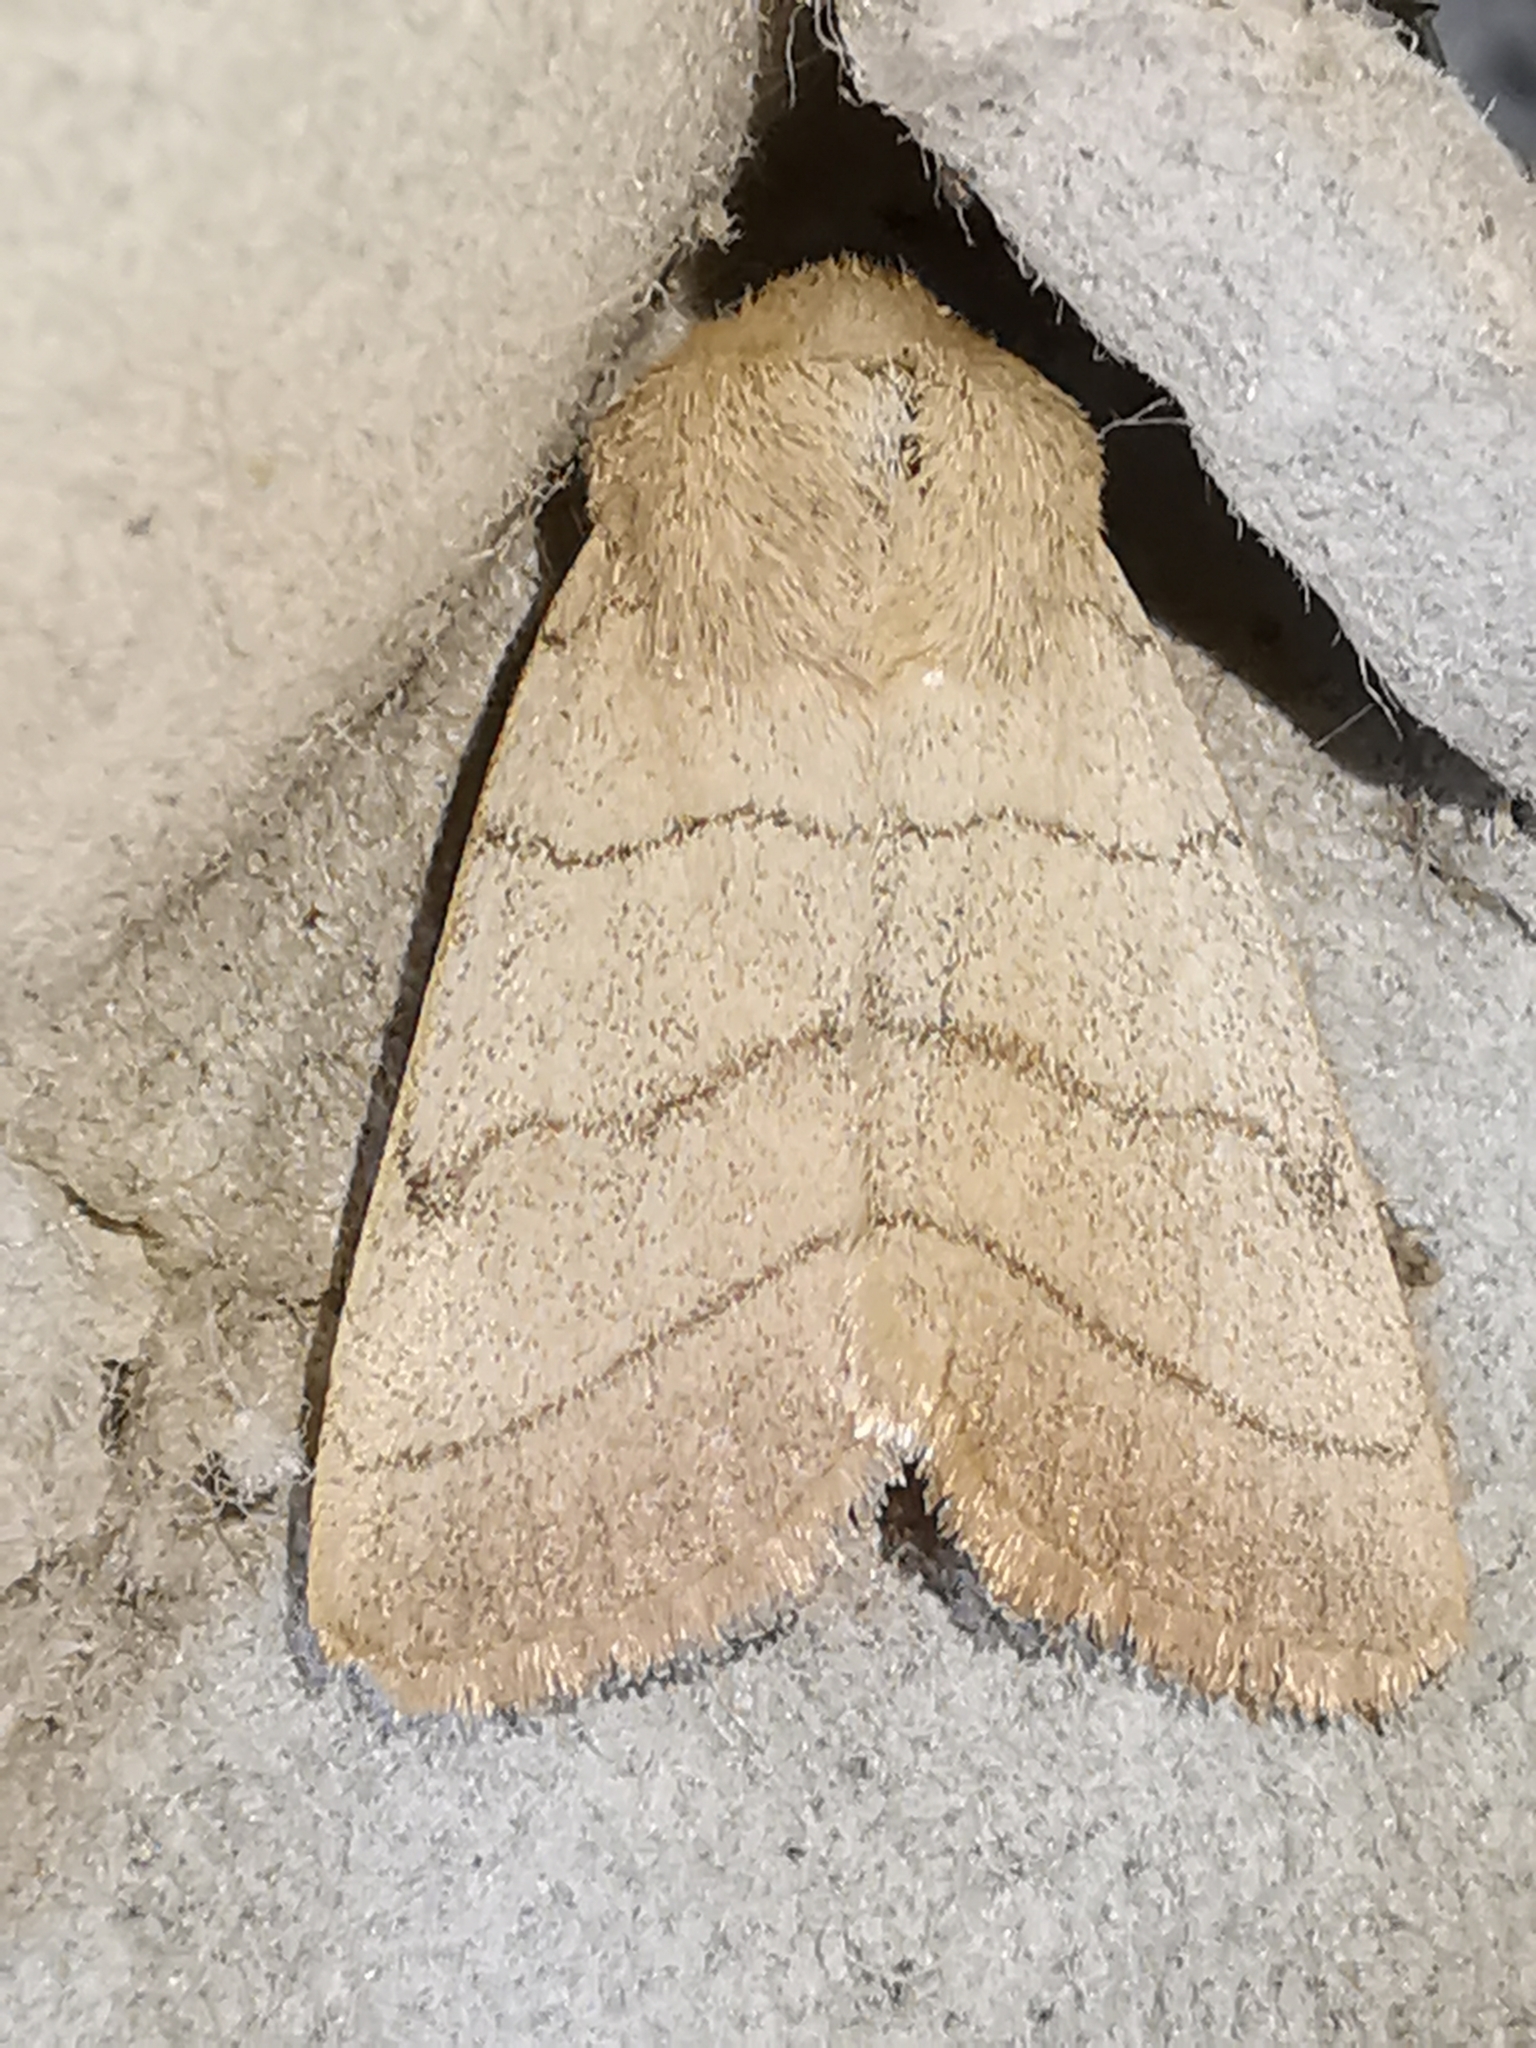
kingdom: Animalia
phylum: Arthropoda
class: Insecta
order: Lepidoptera
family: Noctuidae
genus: Charanyca
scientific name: Charanyca trigrammica
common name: Treble lines
